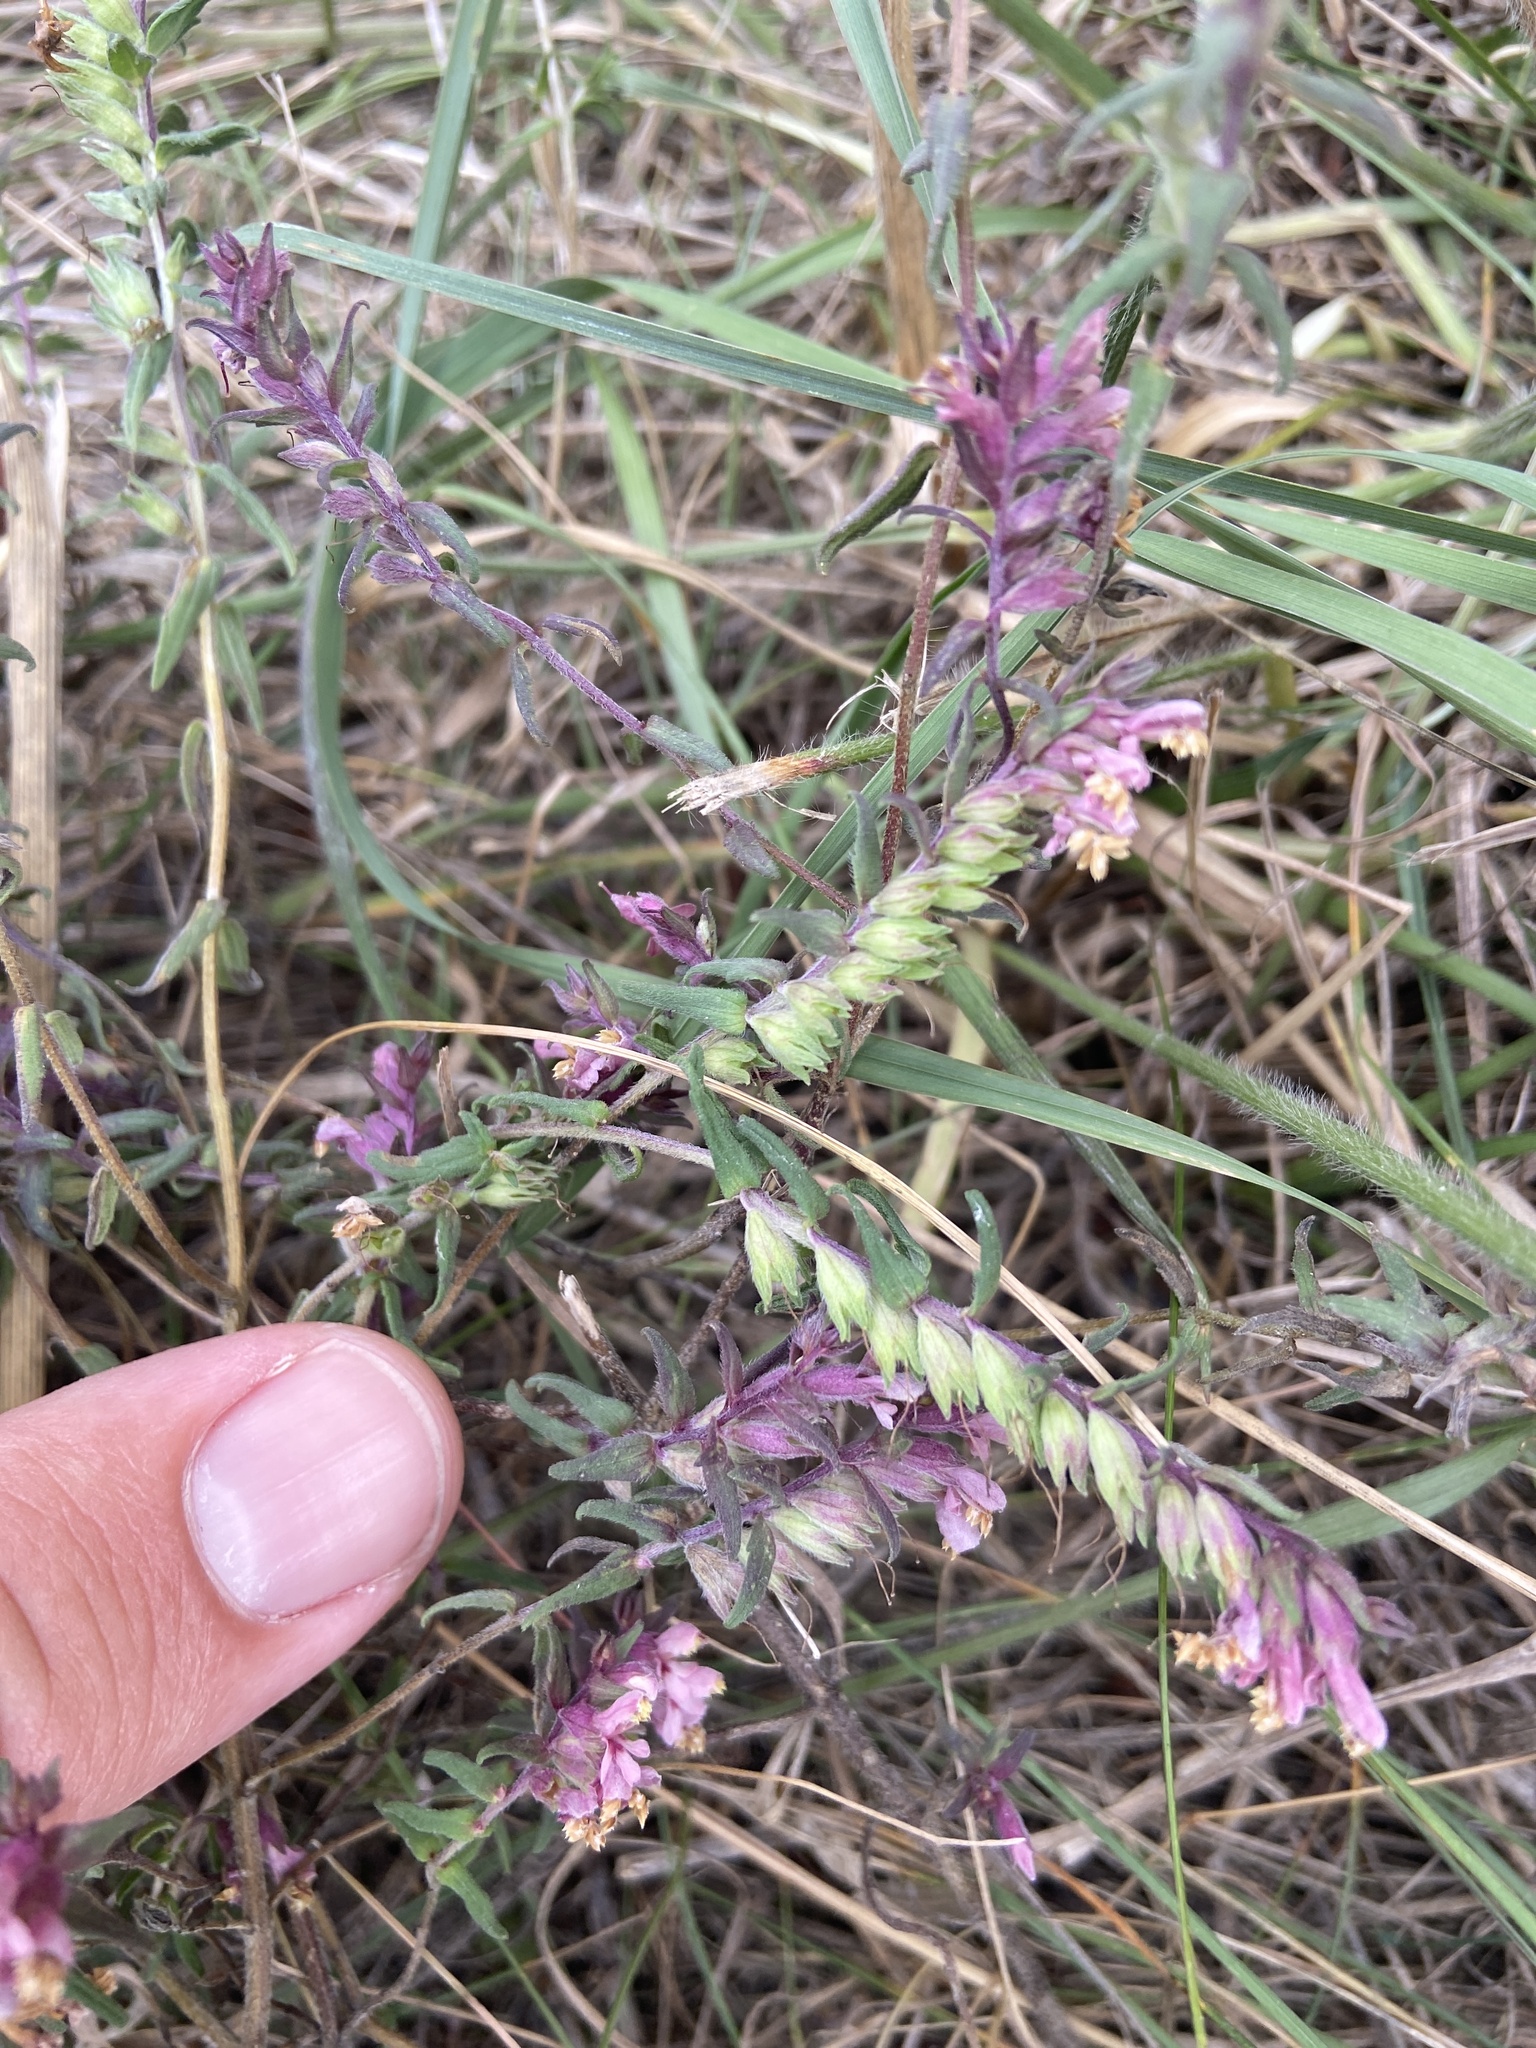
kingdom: Plantae
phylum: Tracheophyta
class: Magnoliopsida
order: Lamiales
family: Orobanchaceae
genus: Odontites
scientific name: Odontites vulgaris
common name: Broomrape
